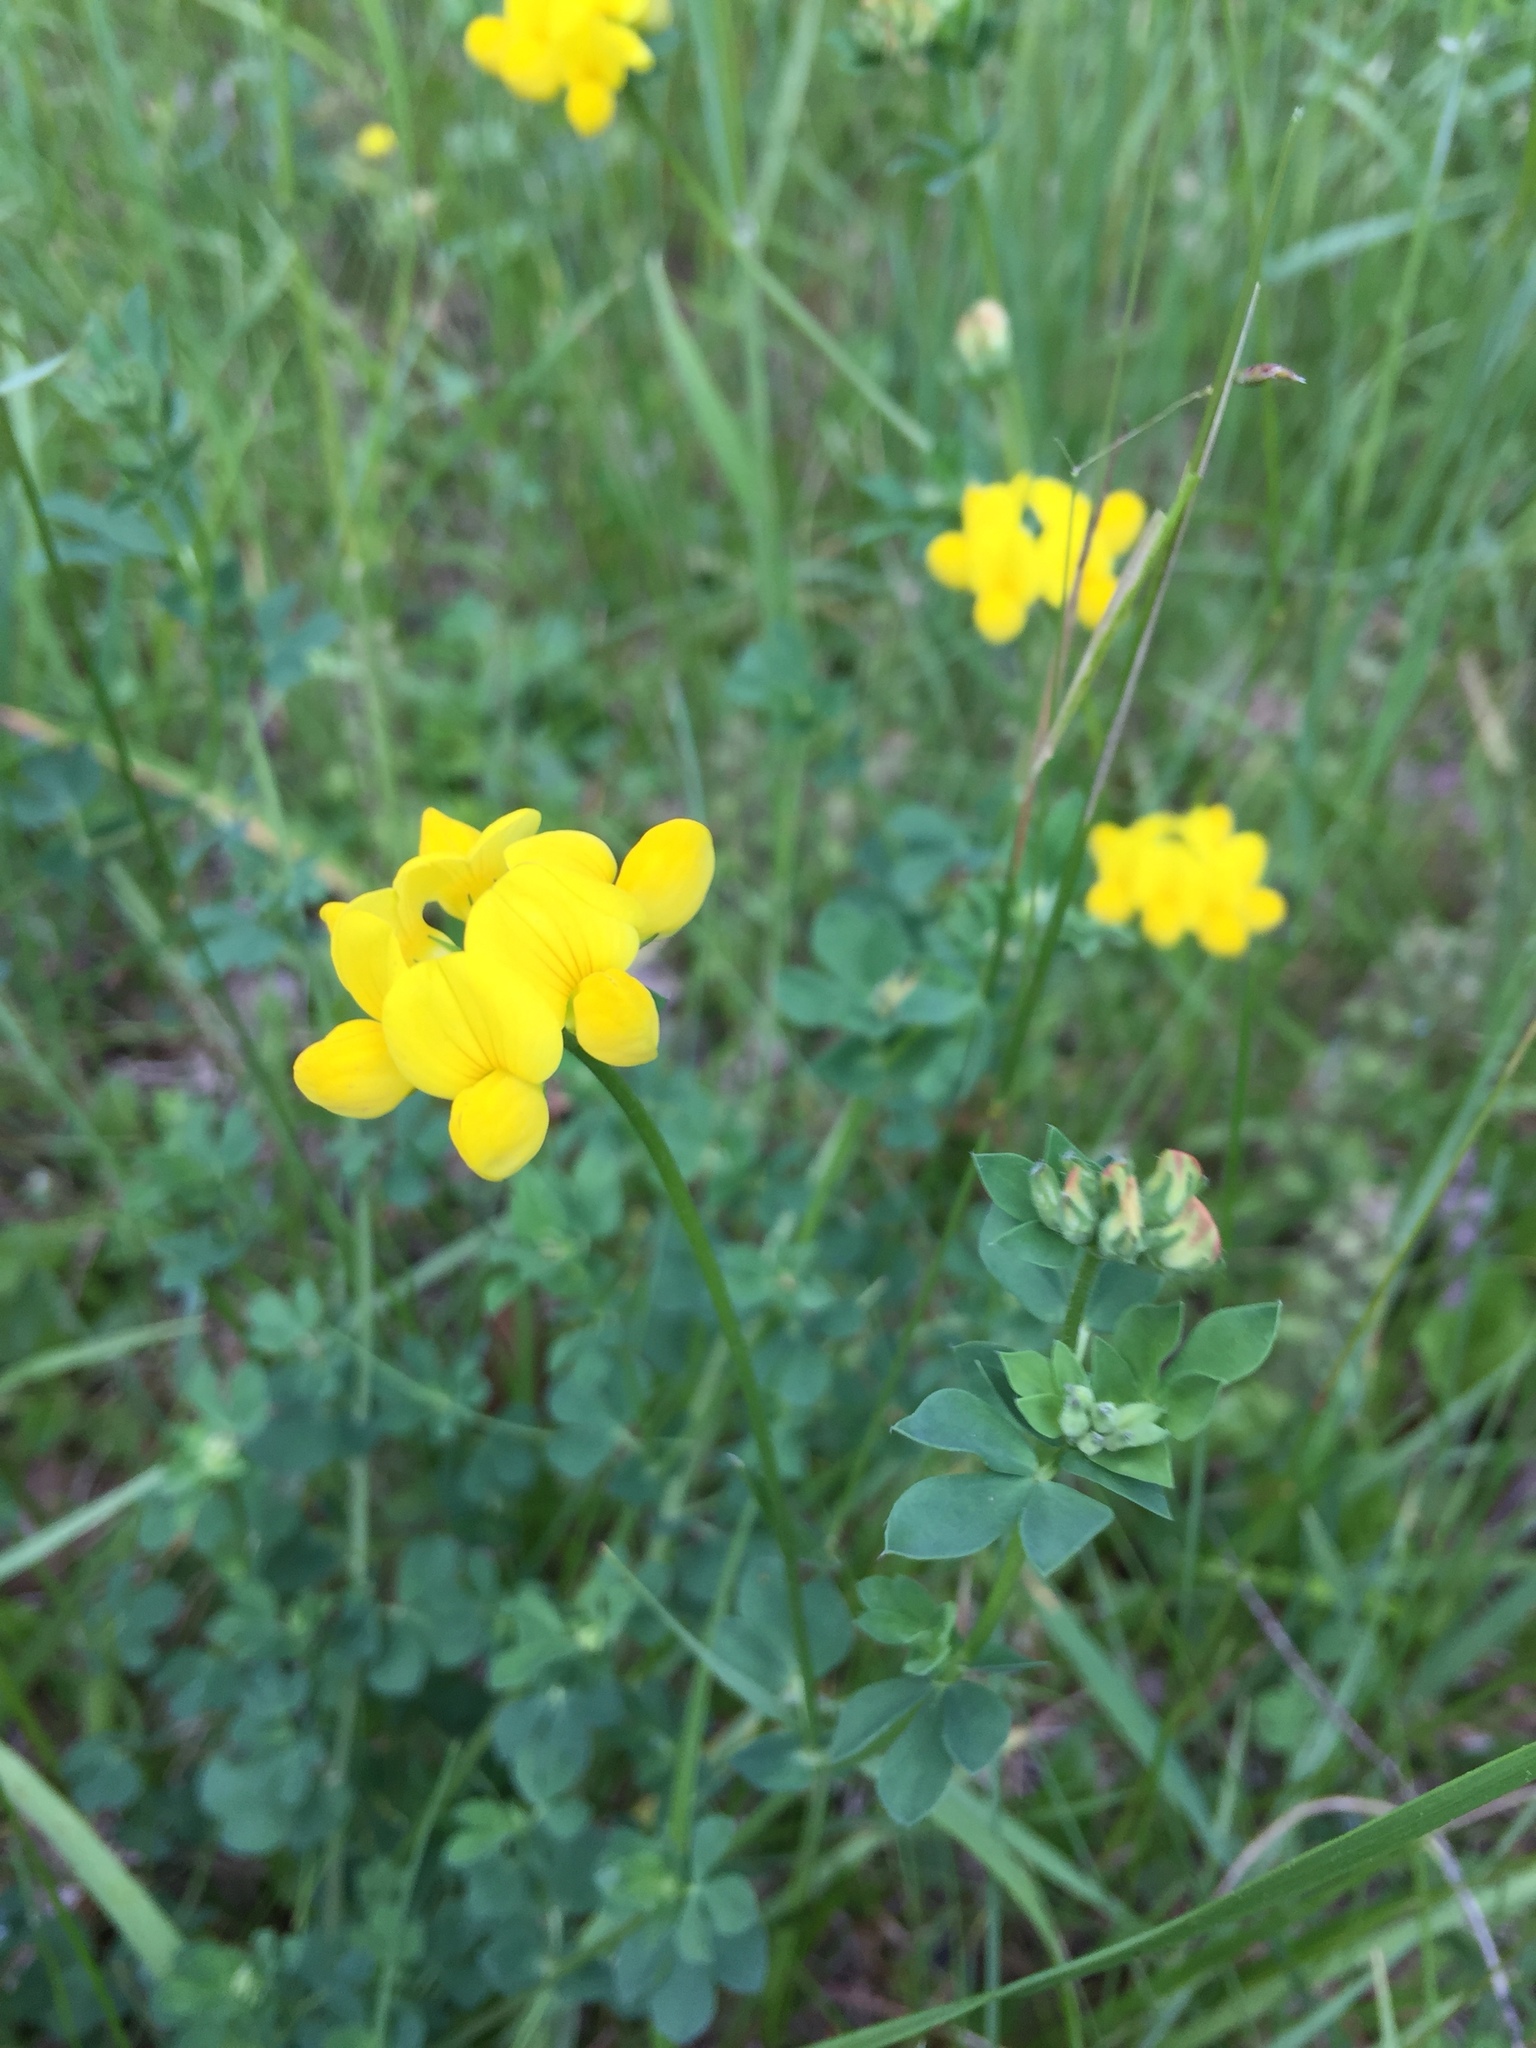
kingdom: Plantae
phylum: Tracheophyta
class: Magnoliopsida
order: Fabales
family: Fabaceae
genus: Lotus
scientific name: Lotus corniculatus
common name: Common bird's-foot-trefoil
